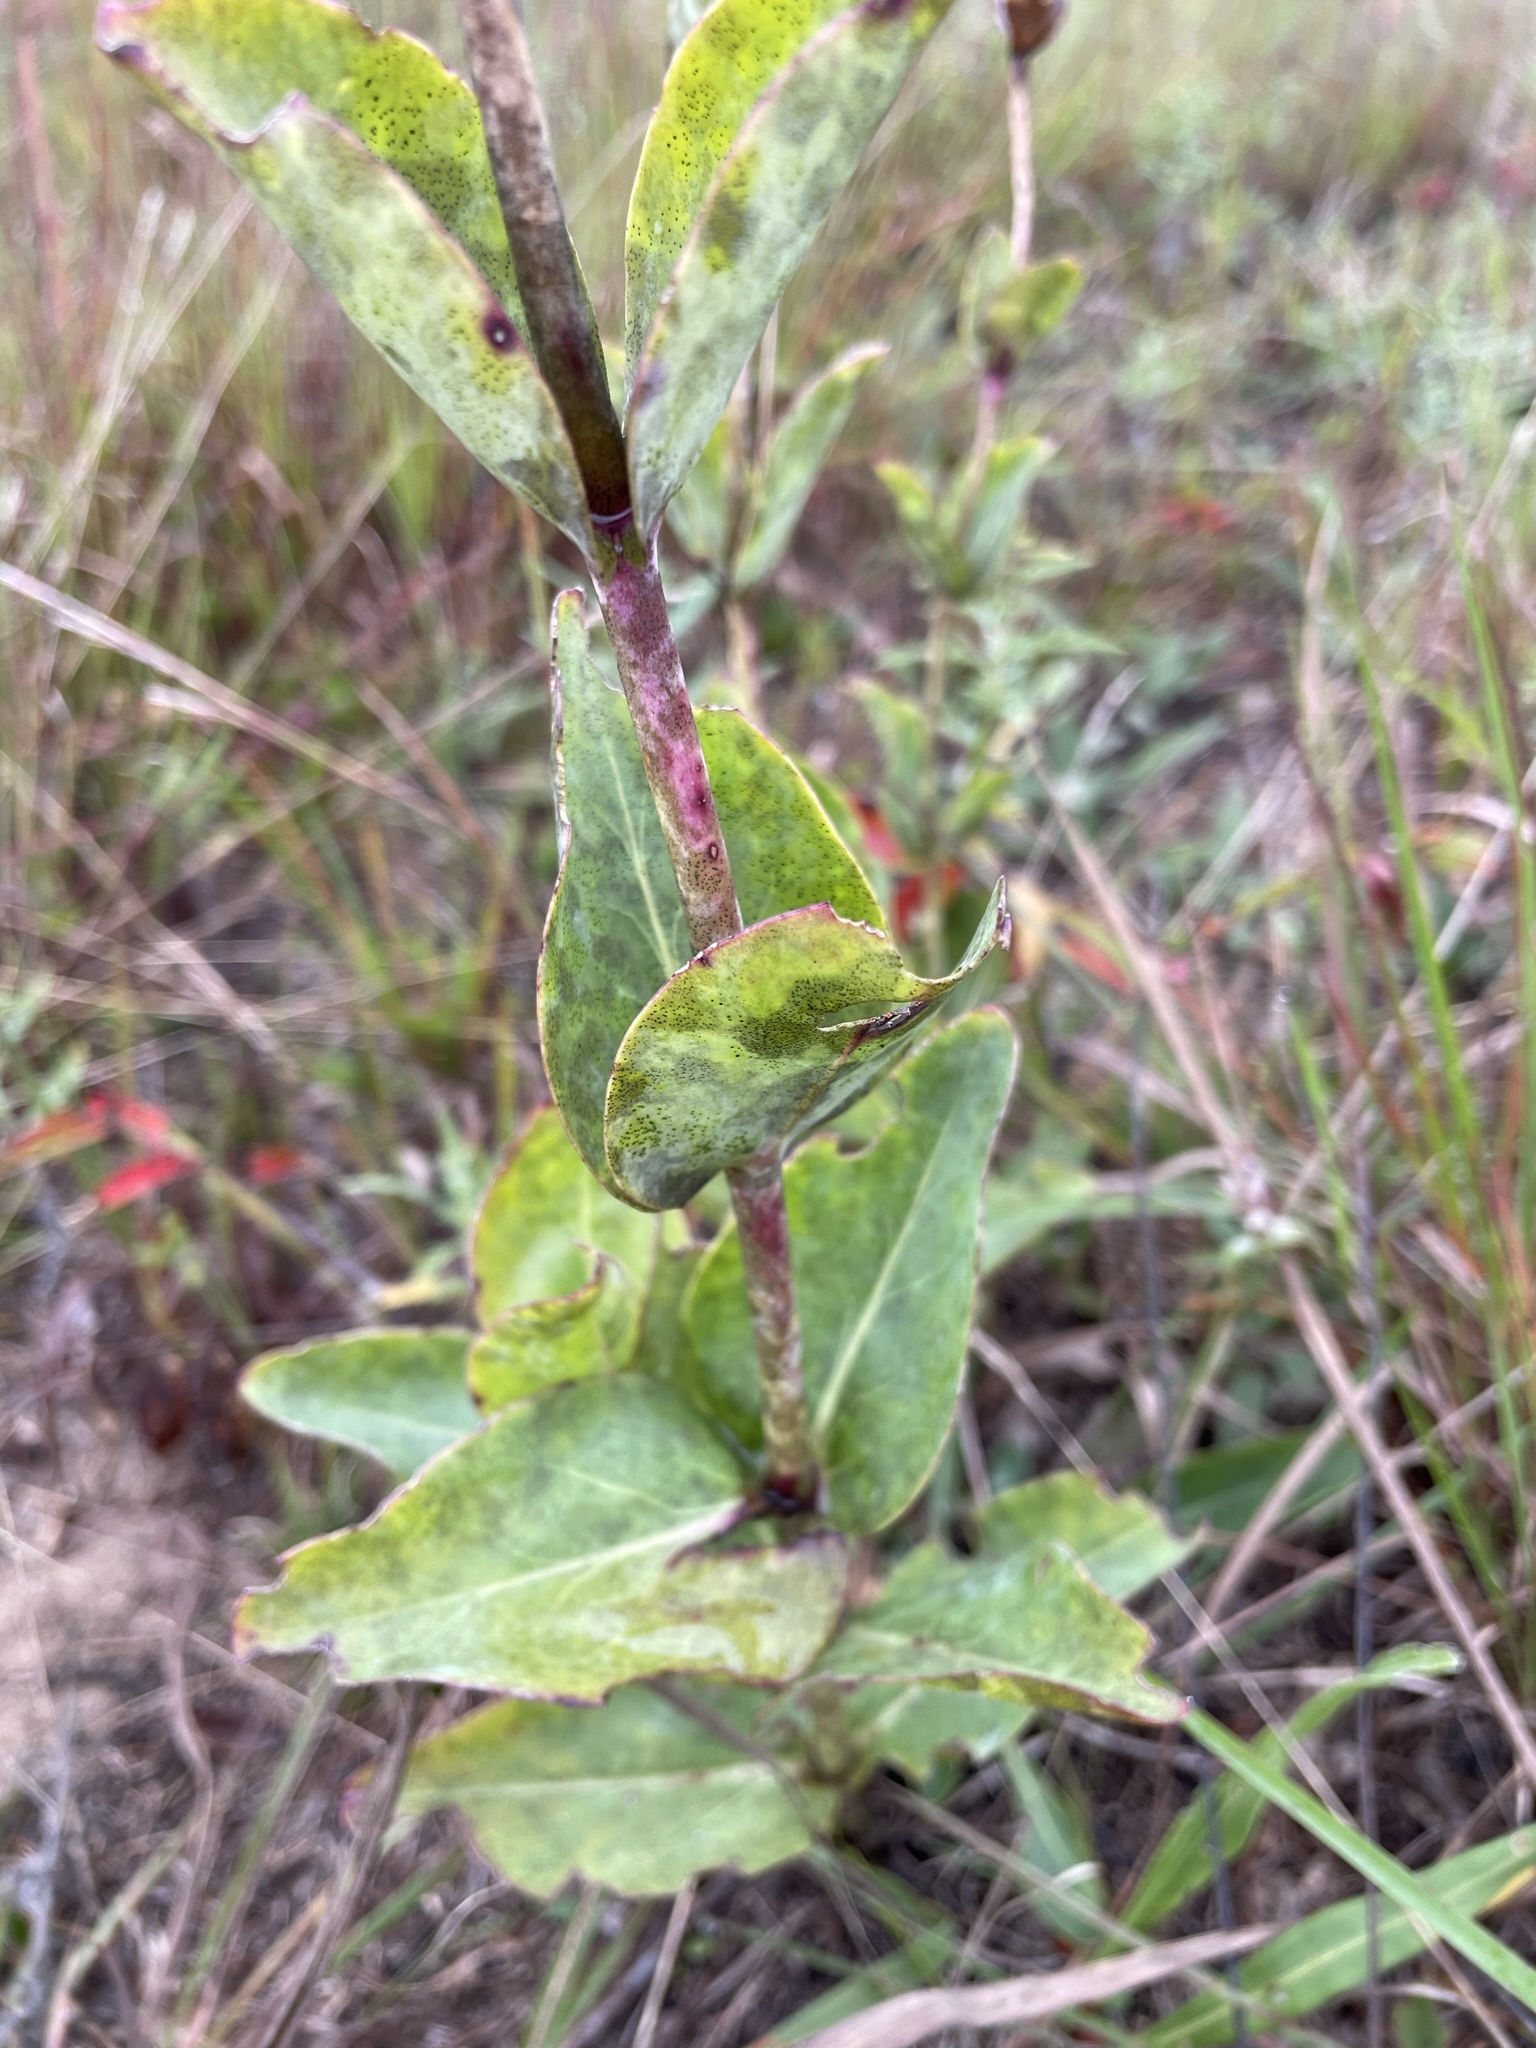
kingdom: Plantae
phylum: Tracheophyta
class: Magnoliopsida
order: Lamiales
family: Plantaginaceae
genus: Penstemon
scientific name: Penstemon
